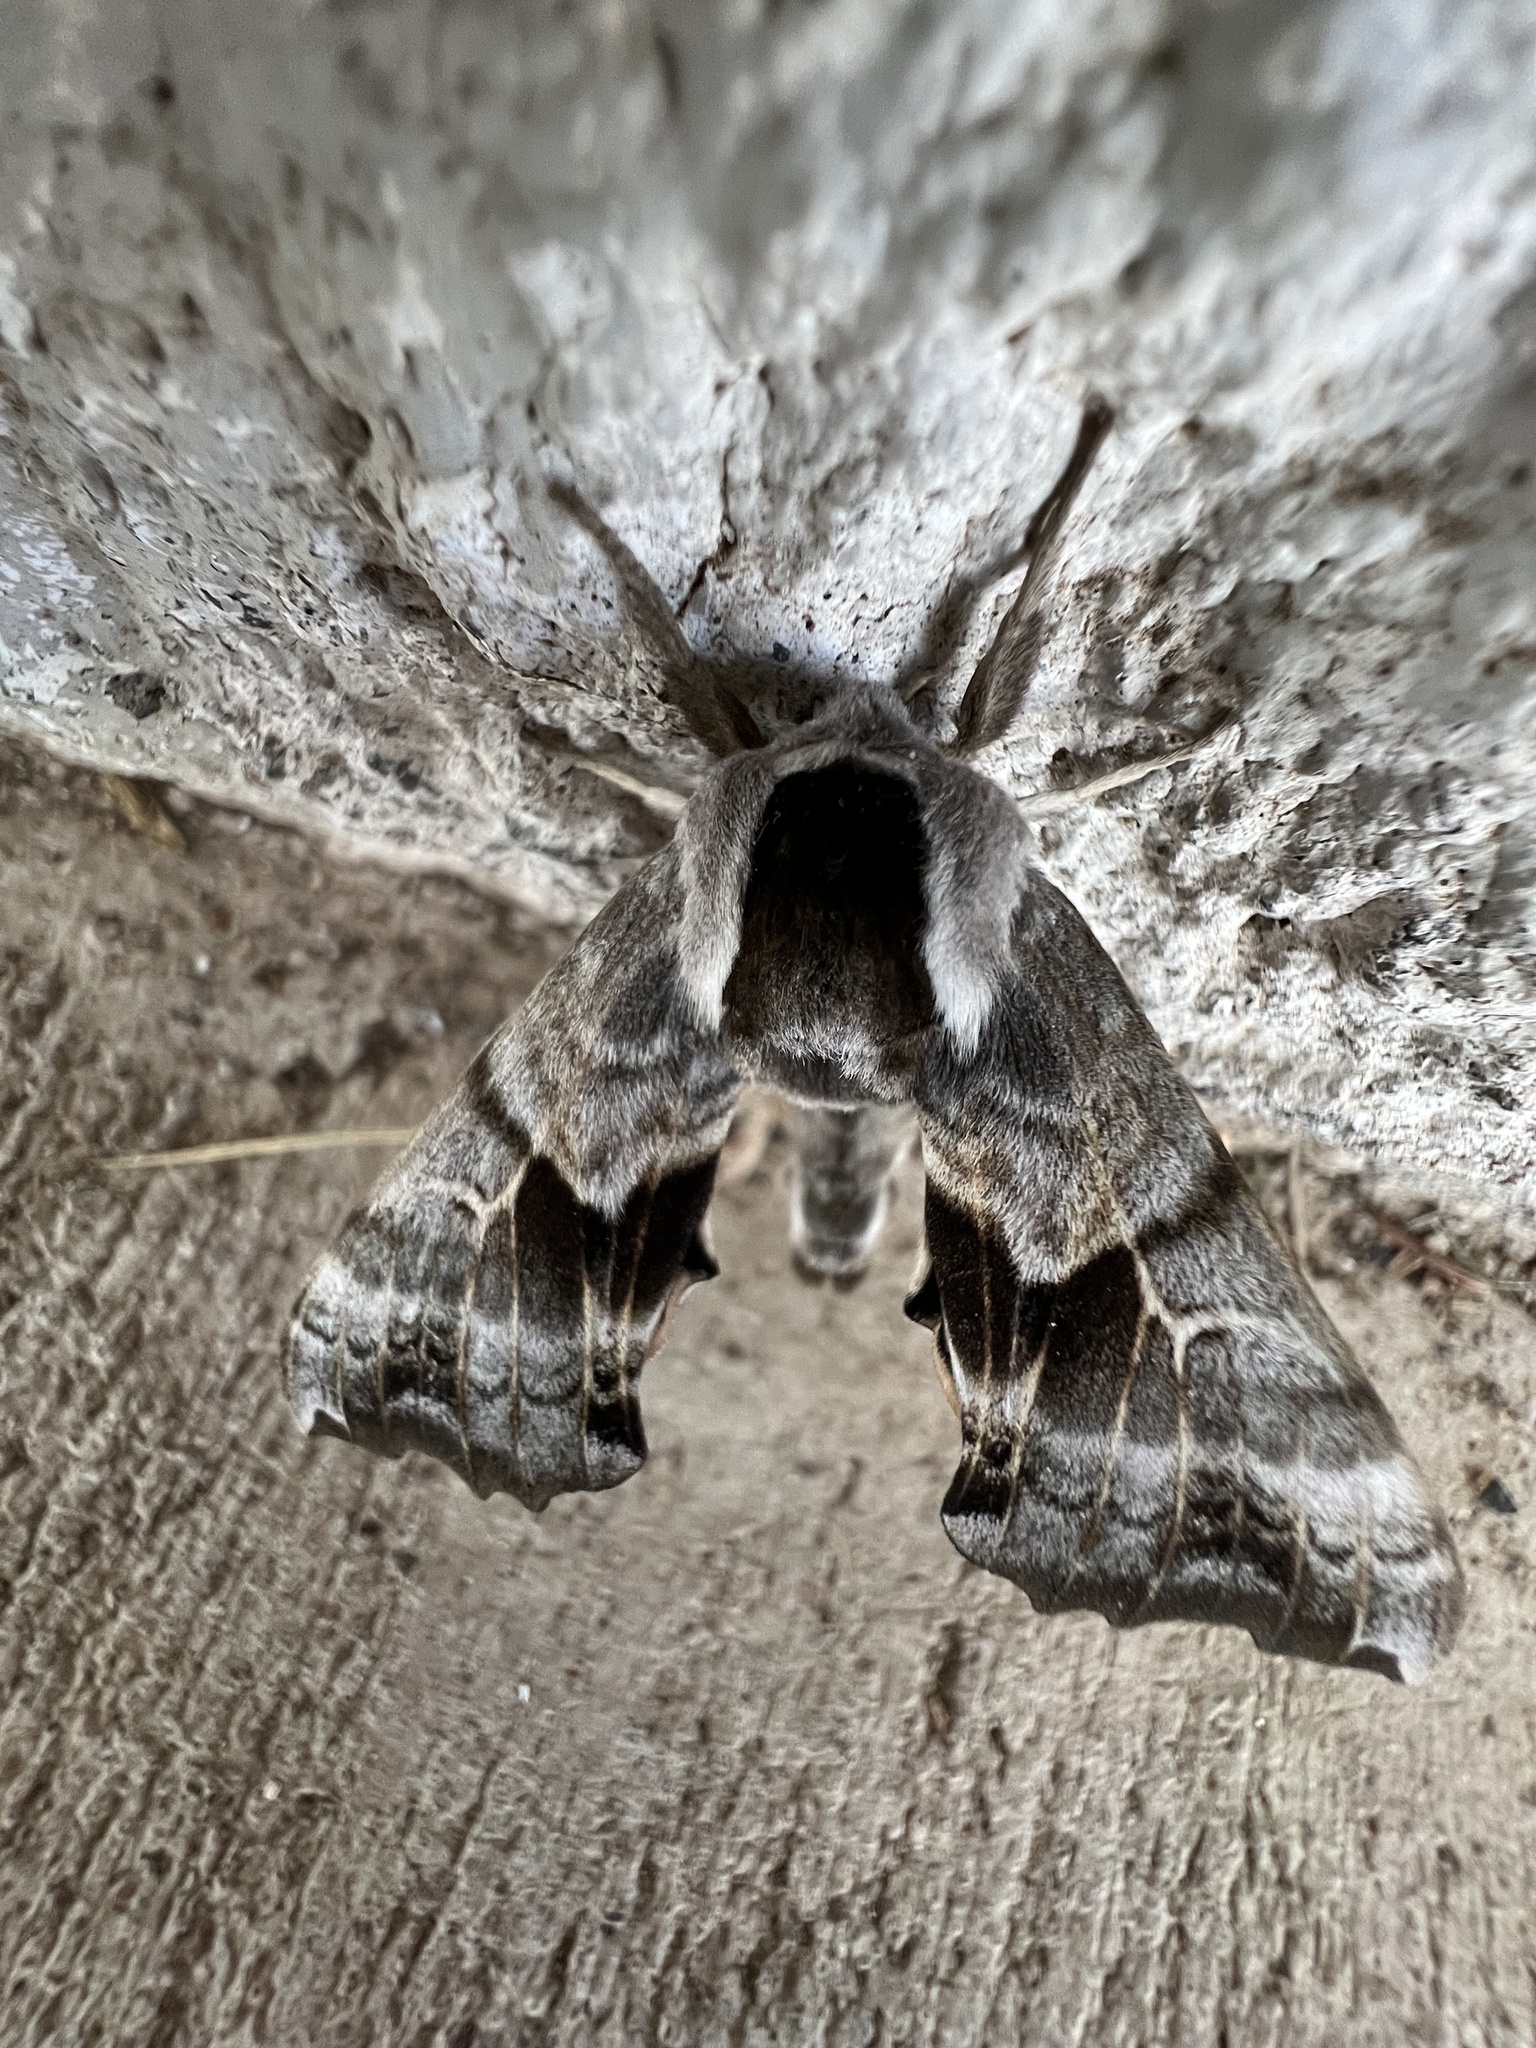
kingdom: Animalia
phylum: Arthropoda
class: Insecta
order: Lepidoptera
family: Sphingidae
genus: Smerinthus
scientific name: Smerinthus cerisyi
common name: Cerisy's sphinx moth
